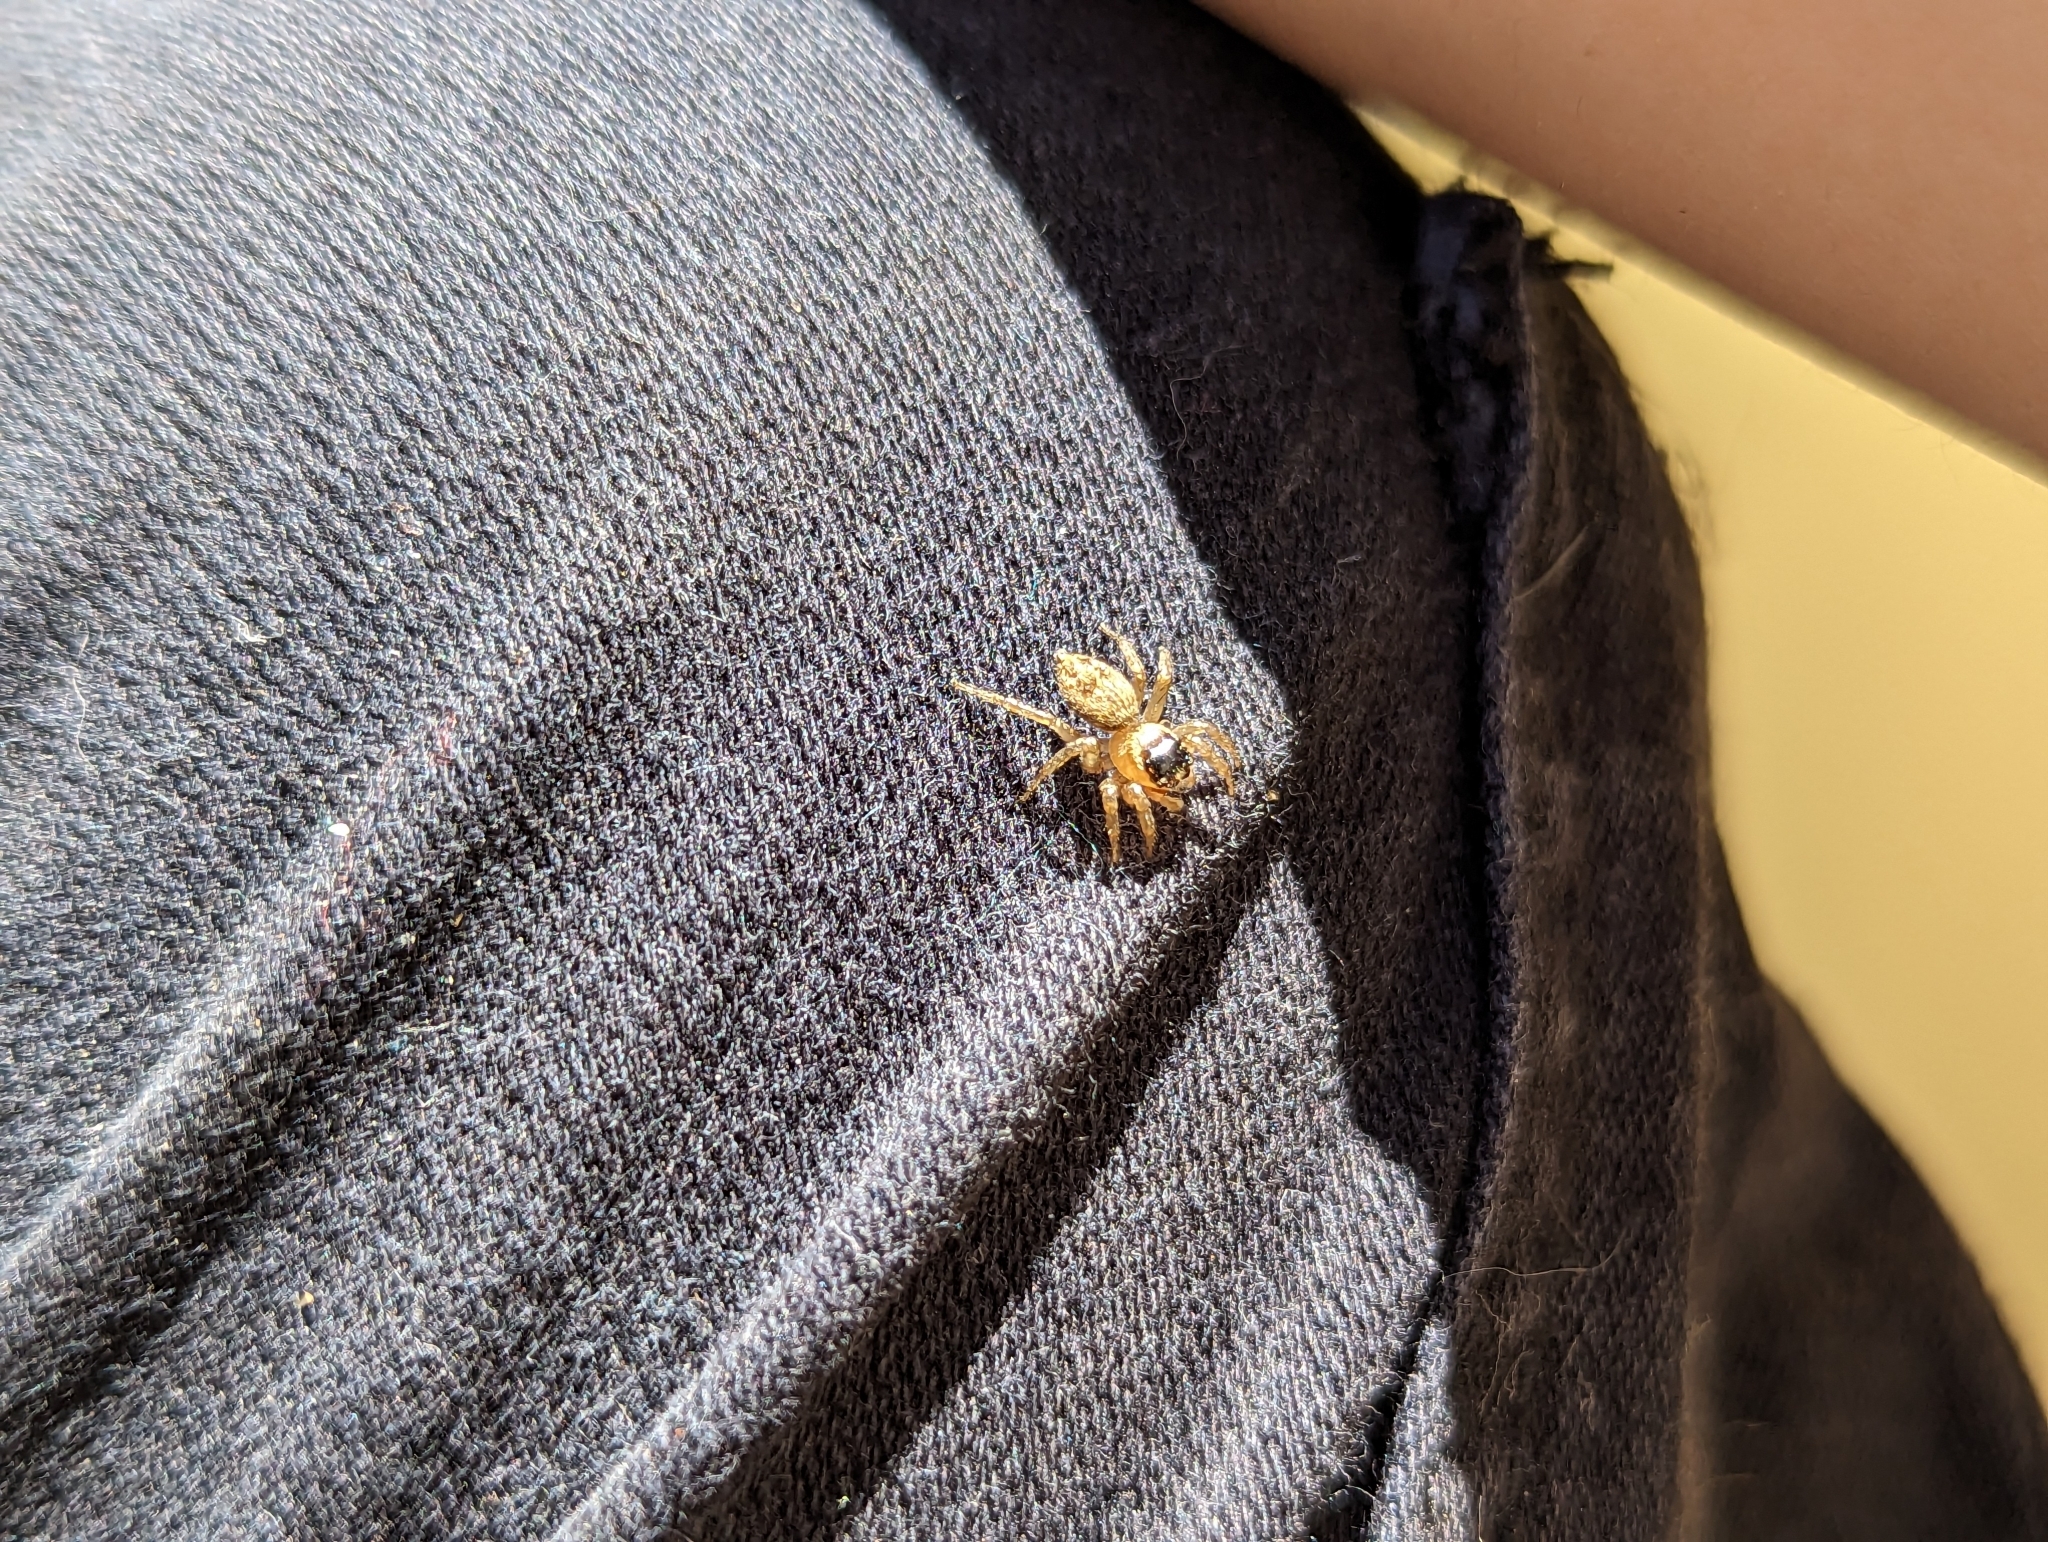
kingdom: Animalia
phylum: Arthropoda
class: Arachnida
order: Araneae
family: Salticidae
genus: Maratus
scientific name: Maratus griseus
